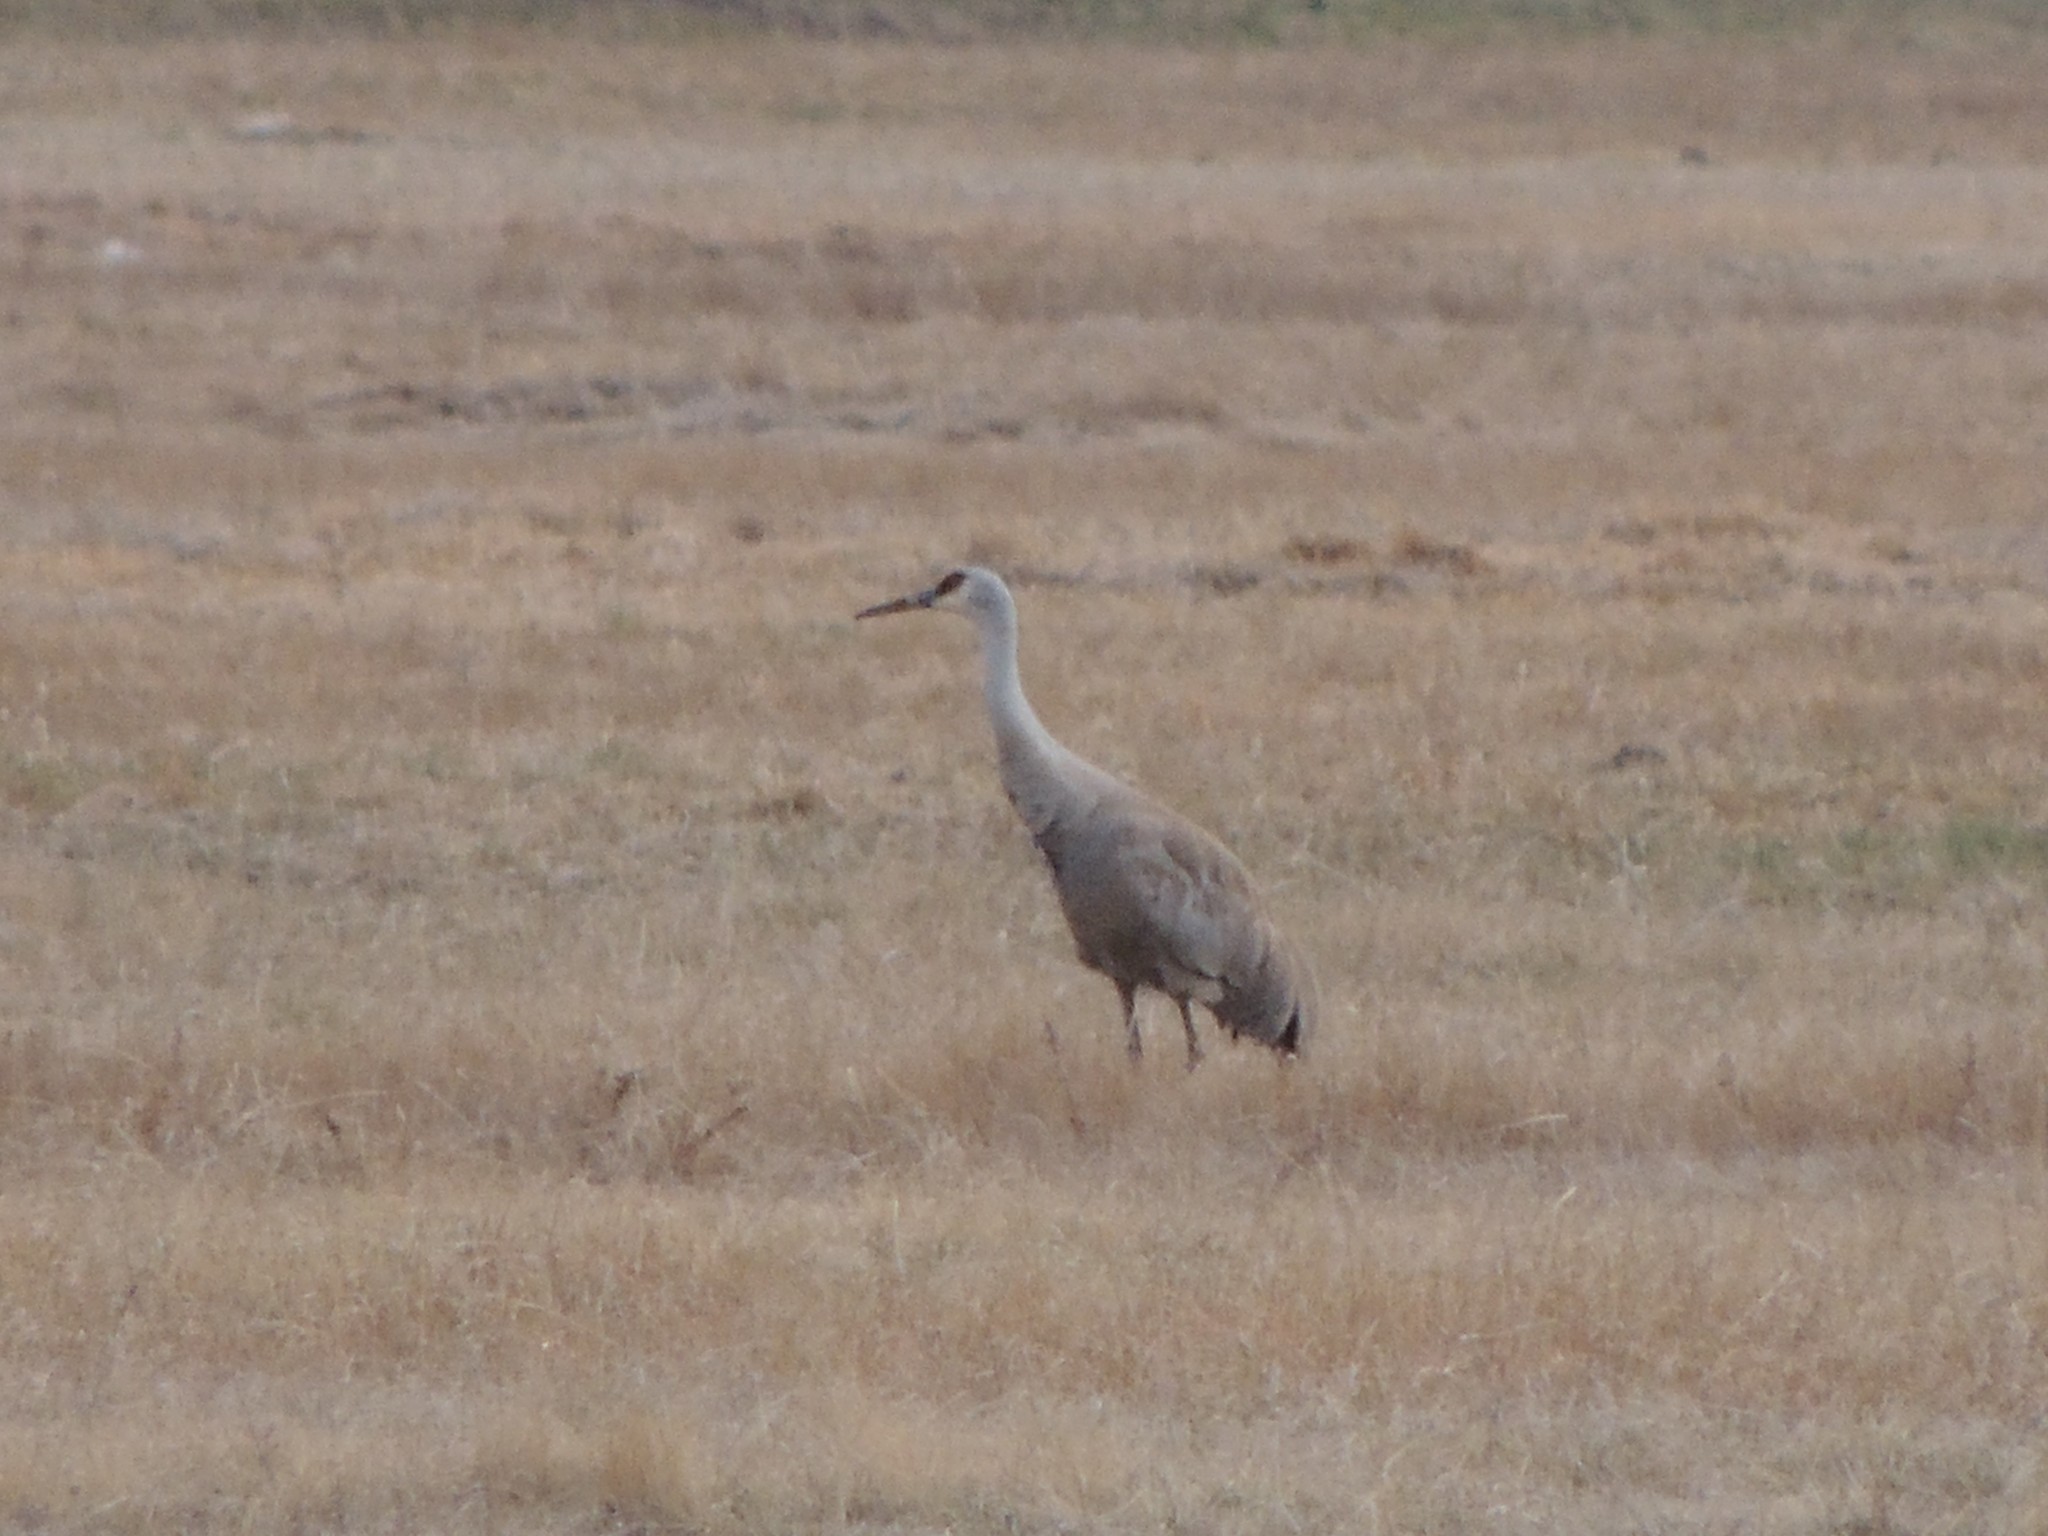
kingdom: Animalia
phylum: Chordata
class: Aves
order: Gruiformes
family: Gruidae
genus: Grus
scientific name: Grus canadensis
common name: Sandhill crane
